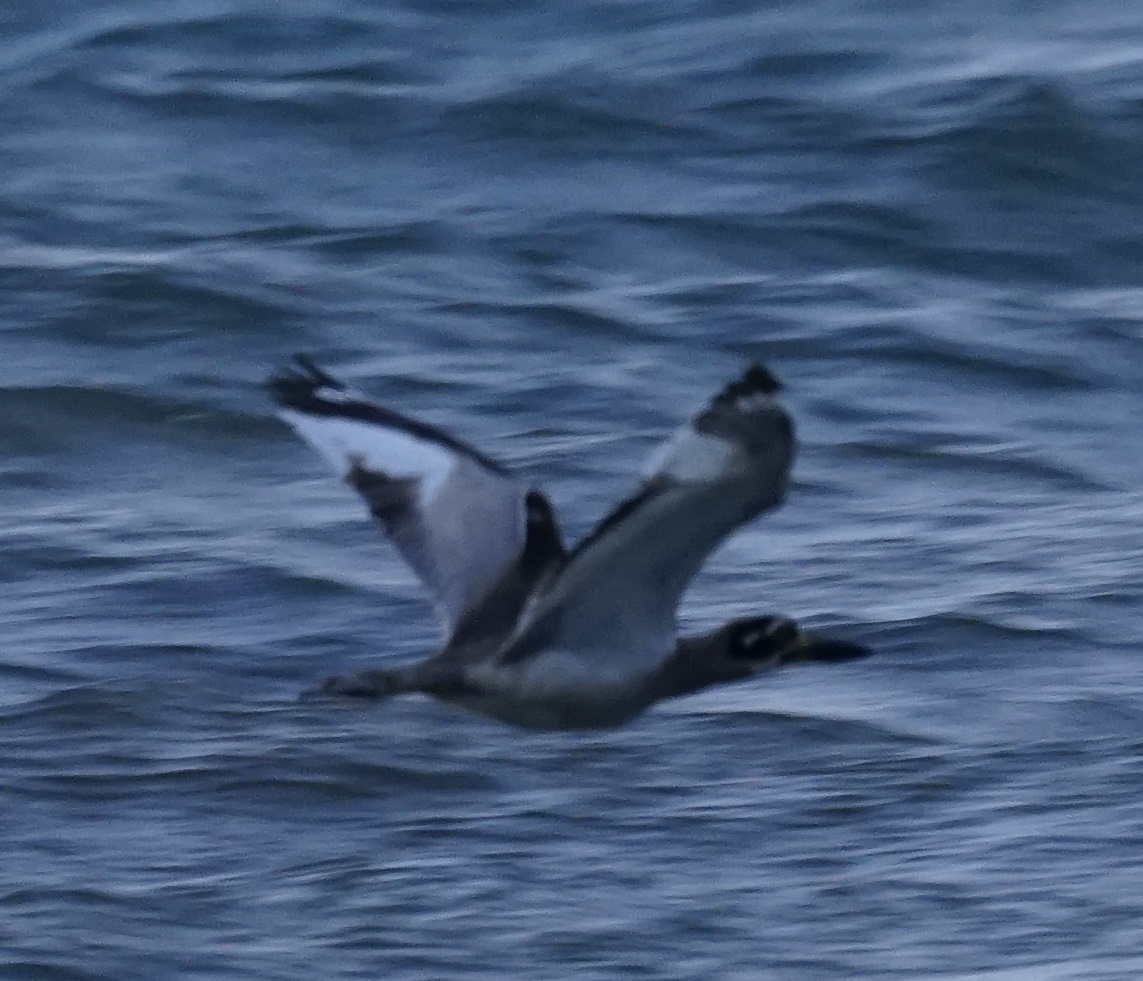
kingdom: Animalia
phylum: Chordata
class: Aves
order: Charadriiformes
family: Burhinidae
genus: Esacus
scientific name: Esacus magnirostris
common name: Beach stone-curlew
